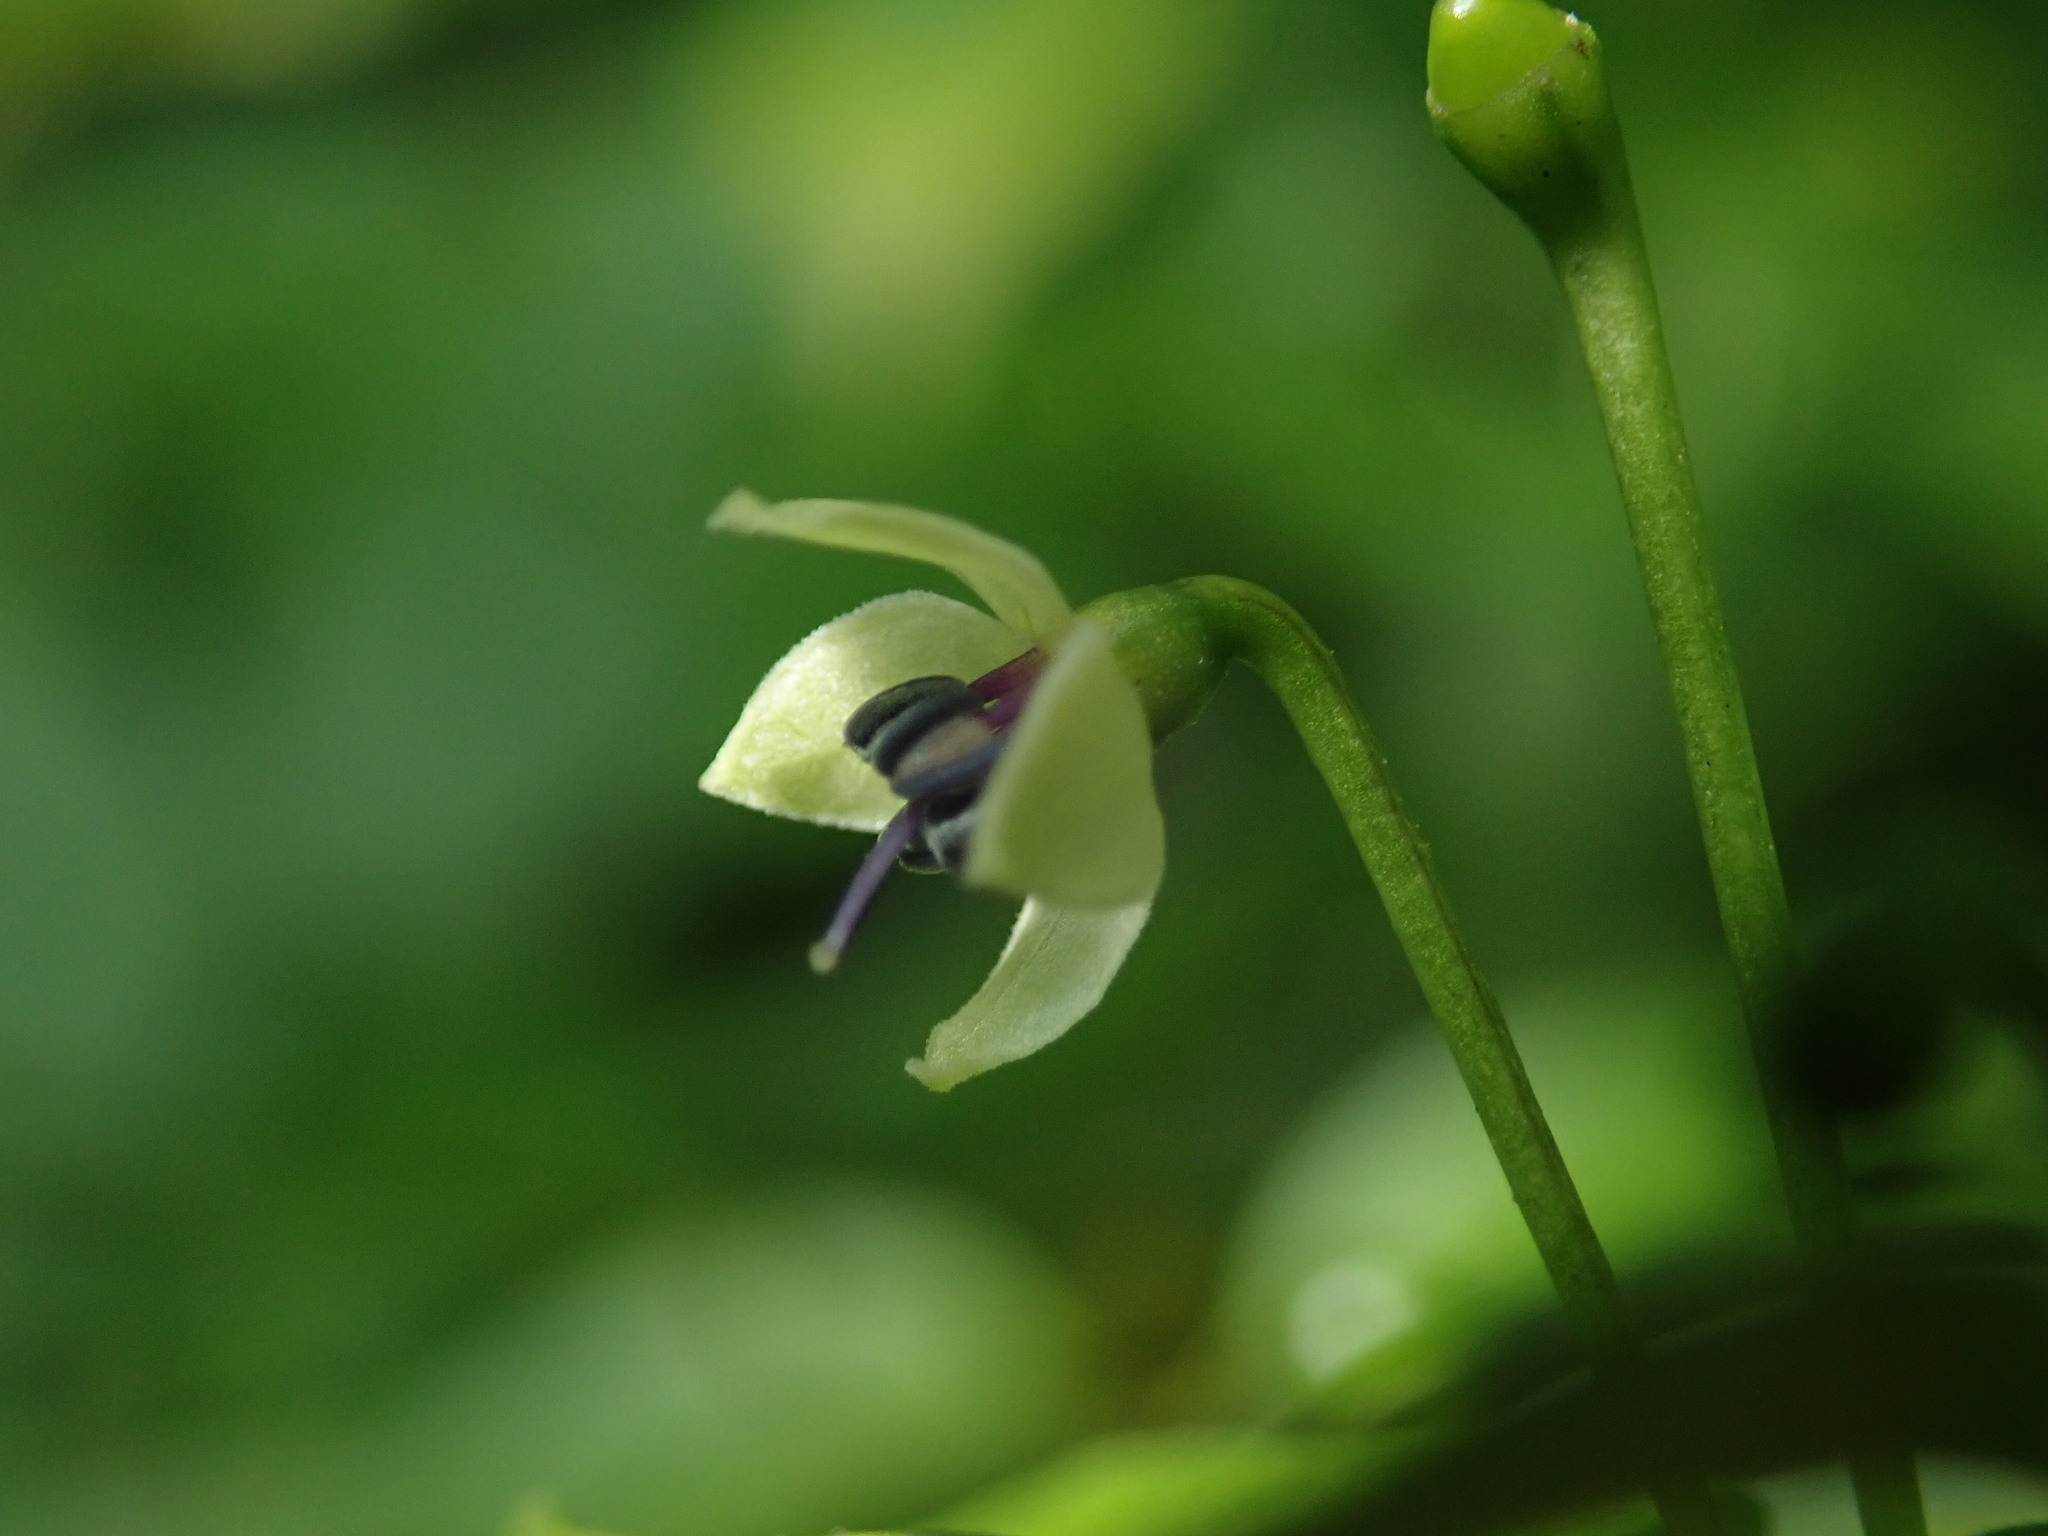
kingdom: Plantae
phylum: Tracheophyta
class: Magnoliopsida
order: Solanales
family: Solanaceae
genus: Capsicum
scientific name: Capsicum annuum
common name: Sweet pepper
